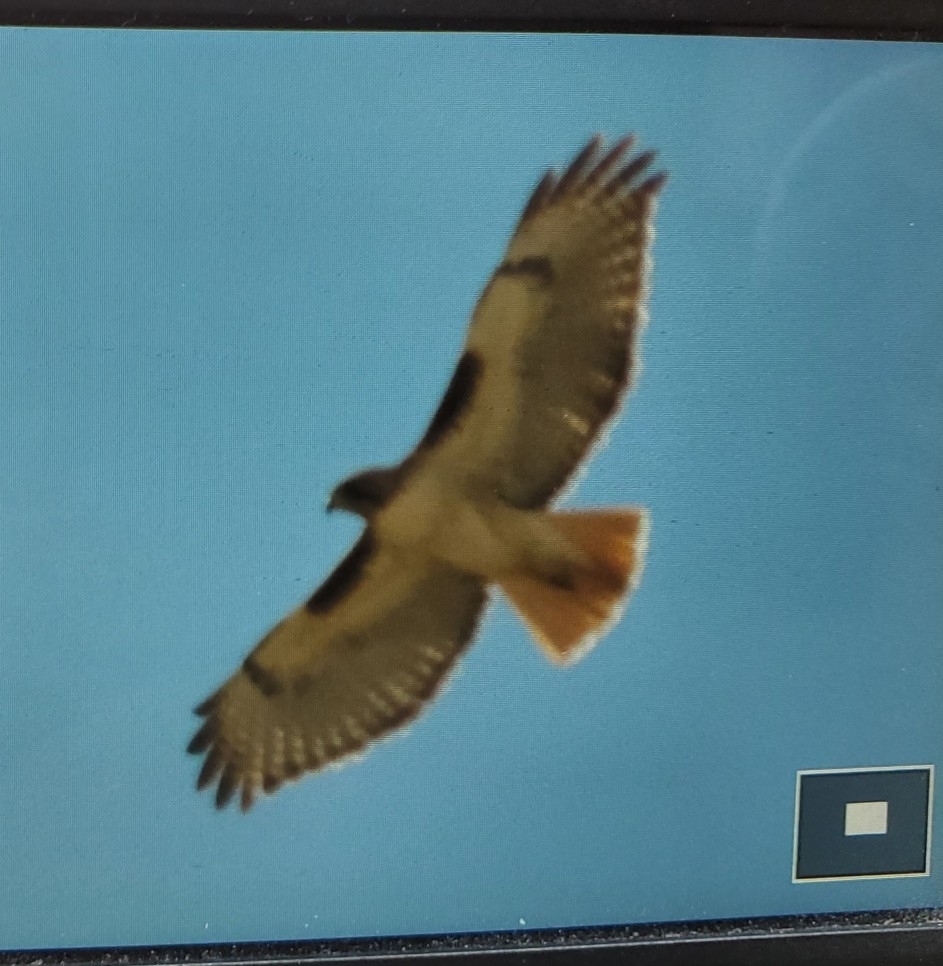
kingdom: Animalia
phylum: Chordata
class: Aves
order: Accipitriformes
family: Accipitridae
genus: Buteo
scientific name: Buteo jamaicensis
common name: Red-tailed hawk
